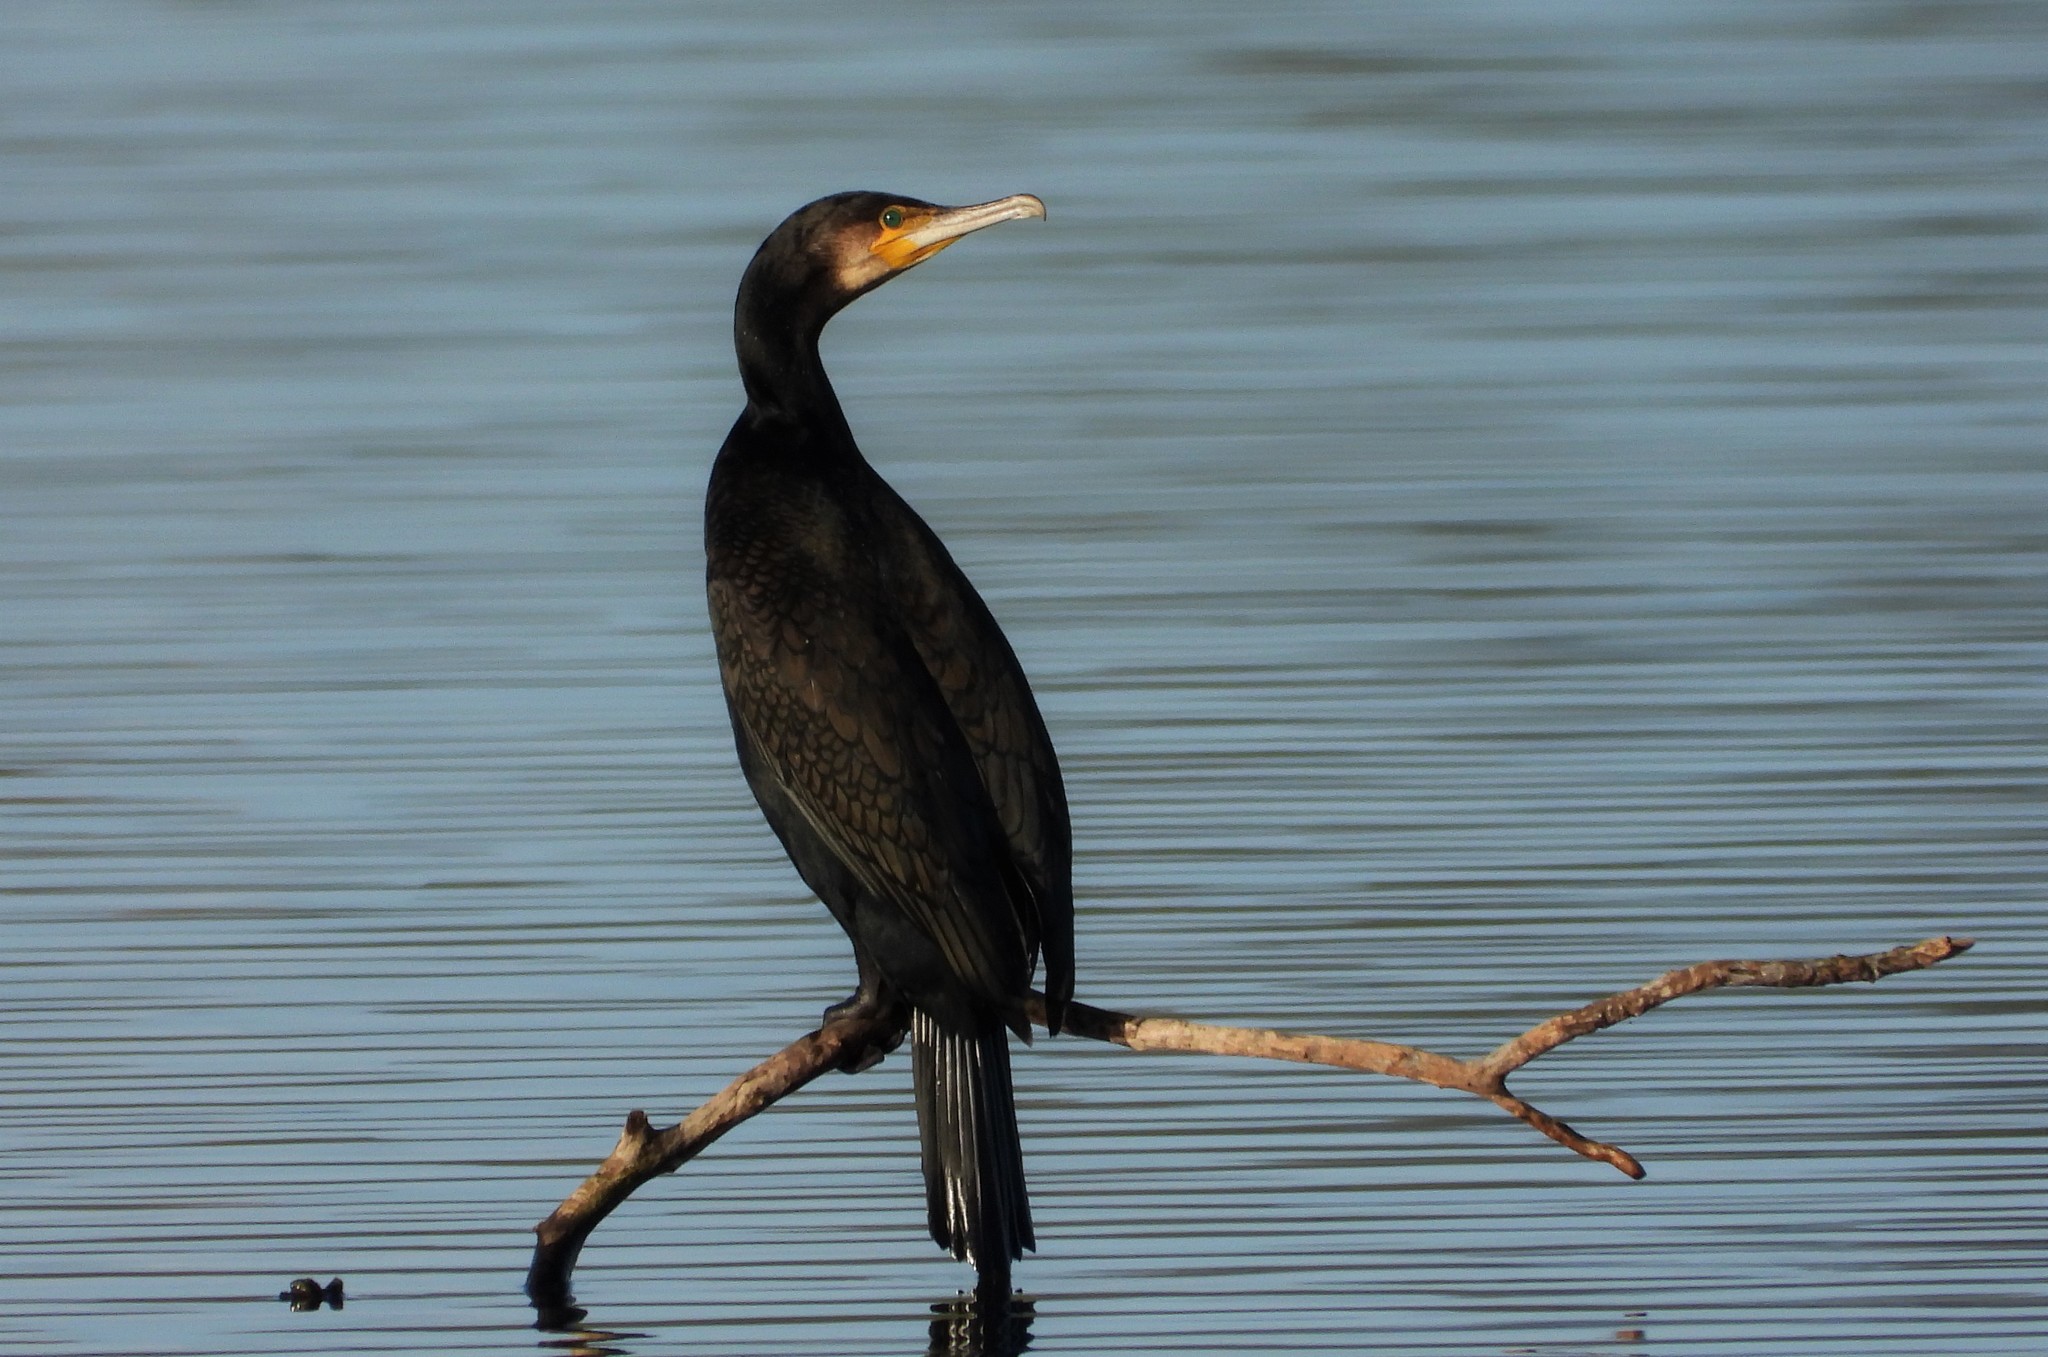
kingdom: Animalia
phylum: Chordata
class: Aves
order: Suliformes
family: Phalacrocoracidae
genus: Phalacrocorax
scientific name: Phalacrocorax carbo
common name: Great cormorant
